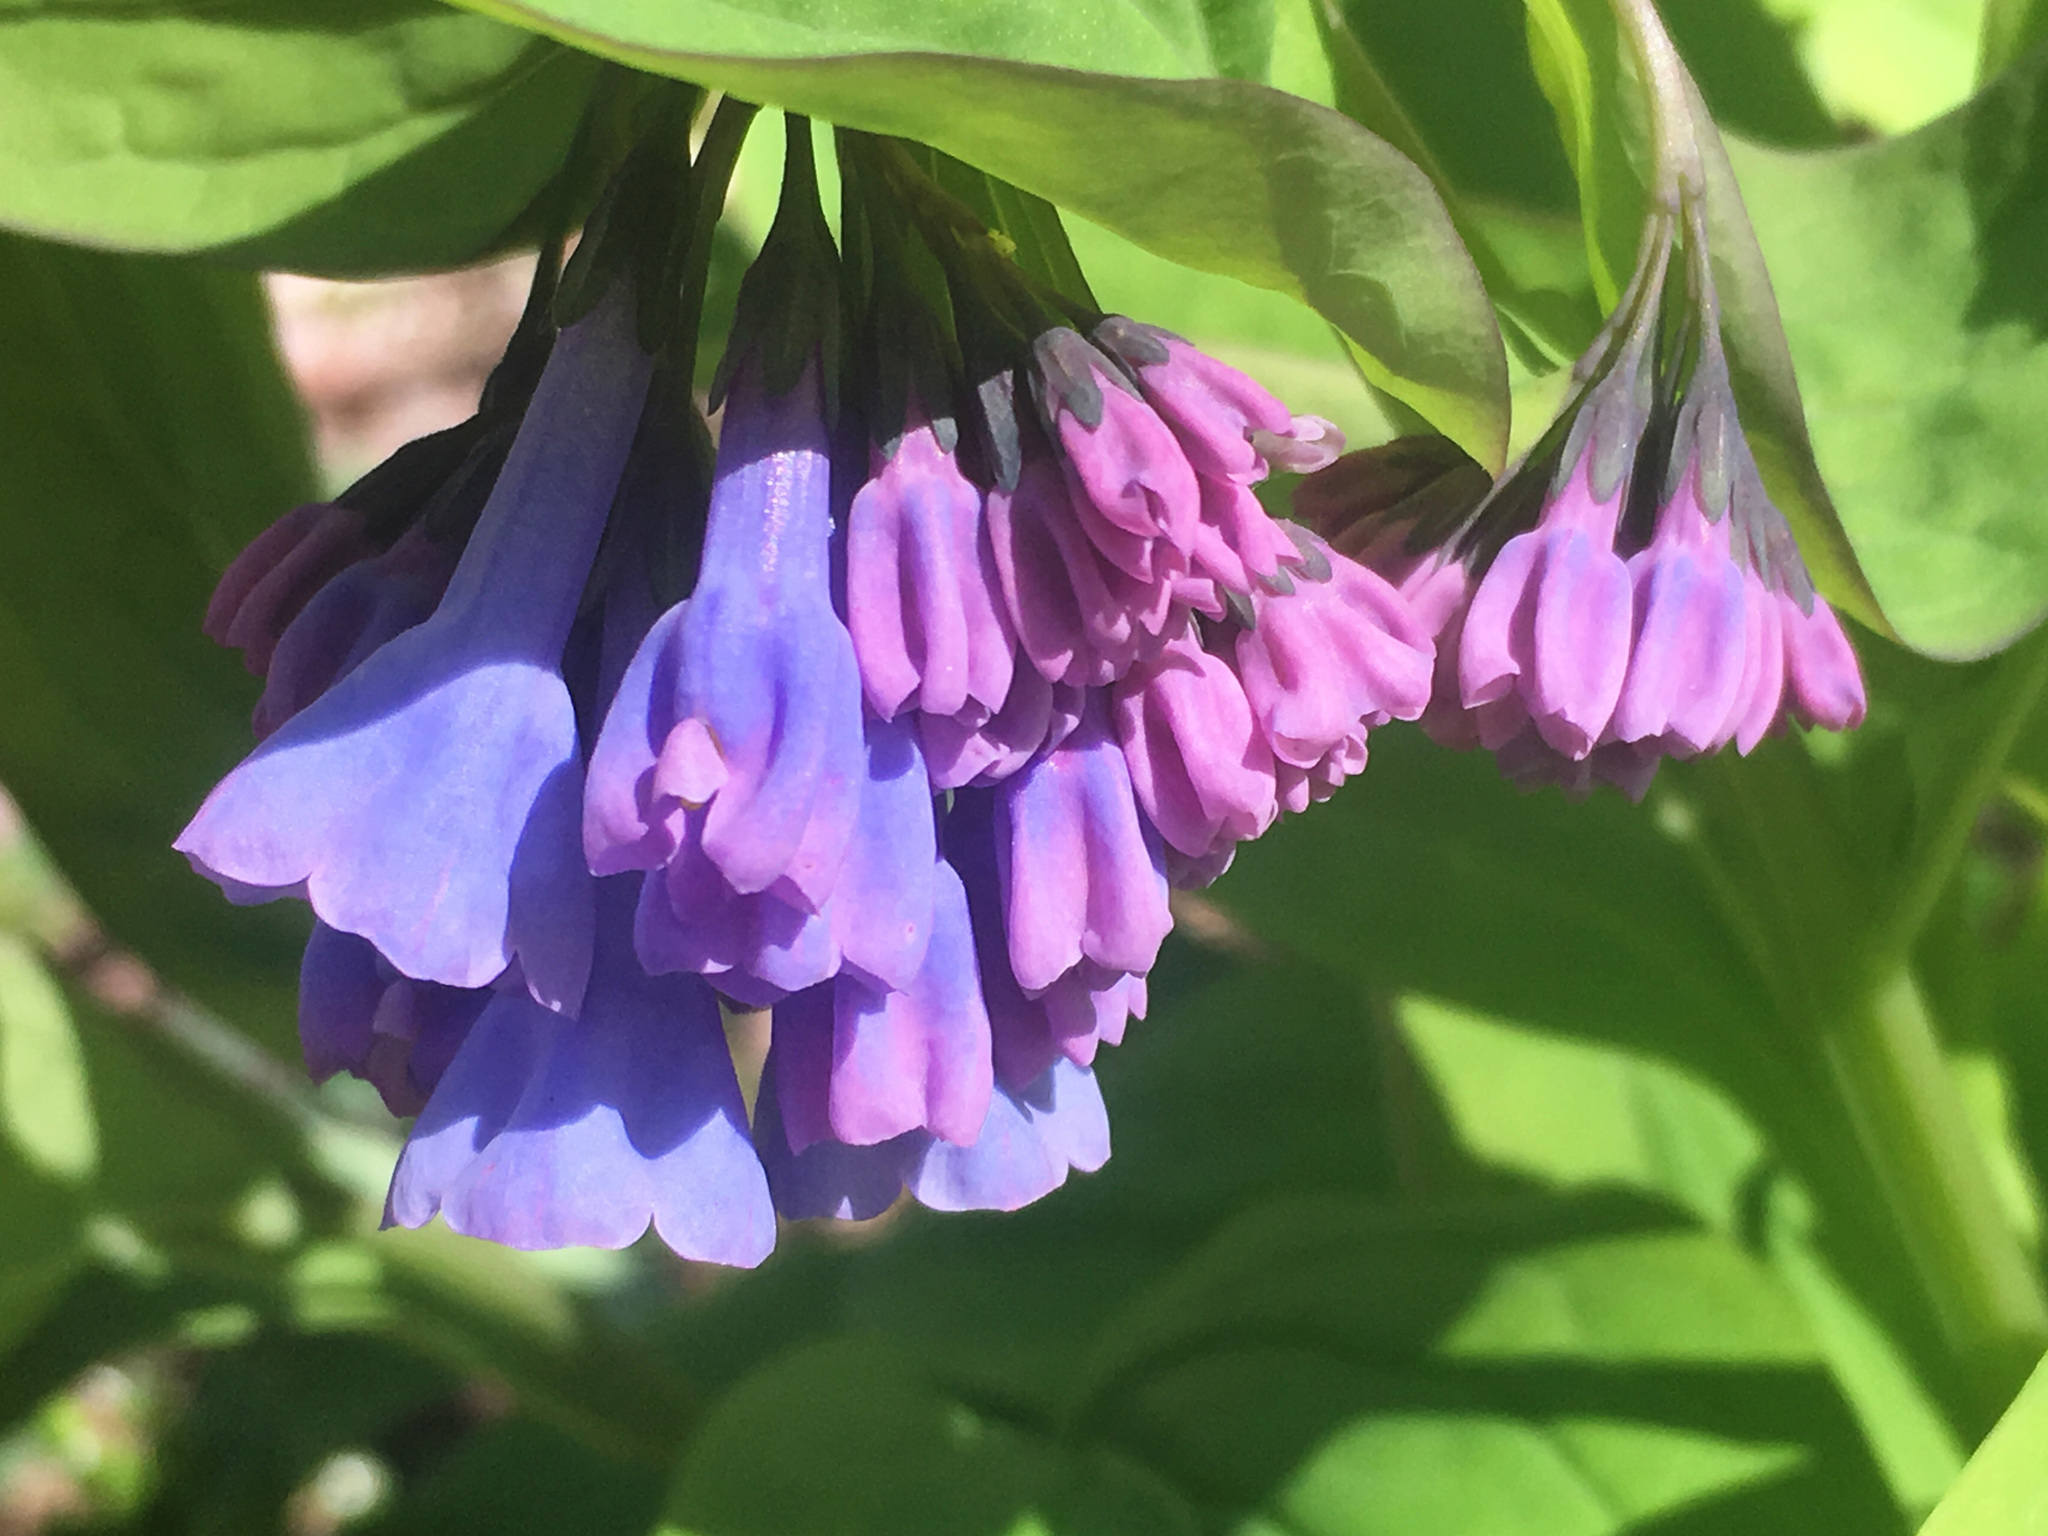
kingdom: Plantae
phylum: Tracheophyta
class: Magnoliopsida
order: Boraginales
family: Boraginaceae
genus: Mertensia
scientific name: Mertensia virginica
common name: Virginia bluebells
